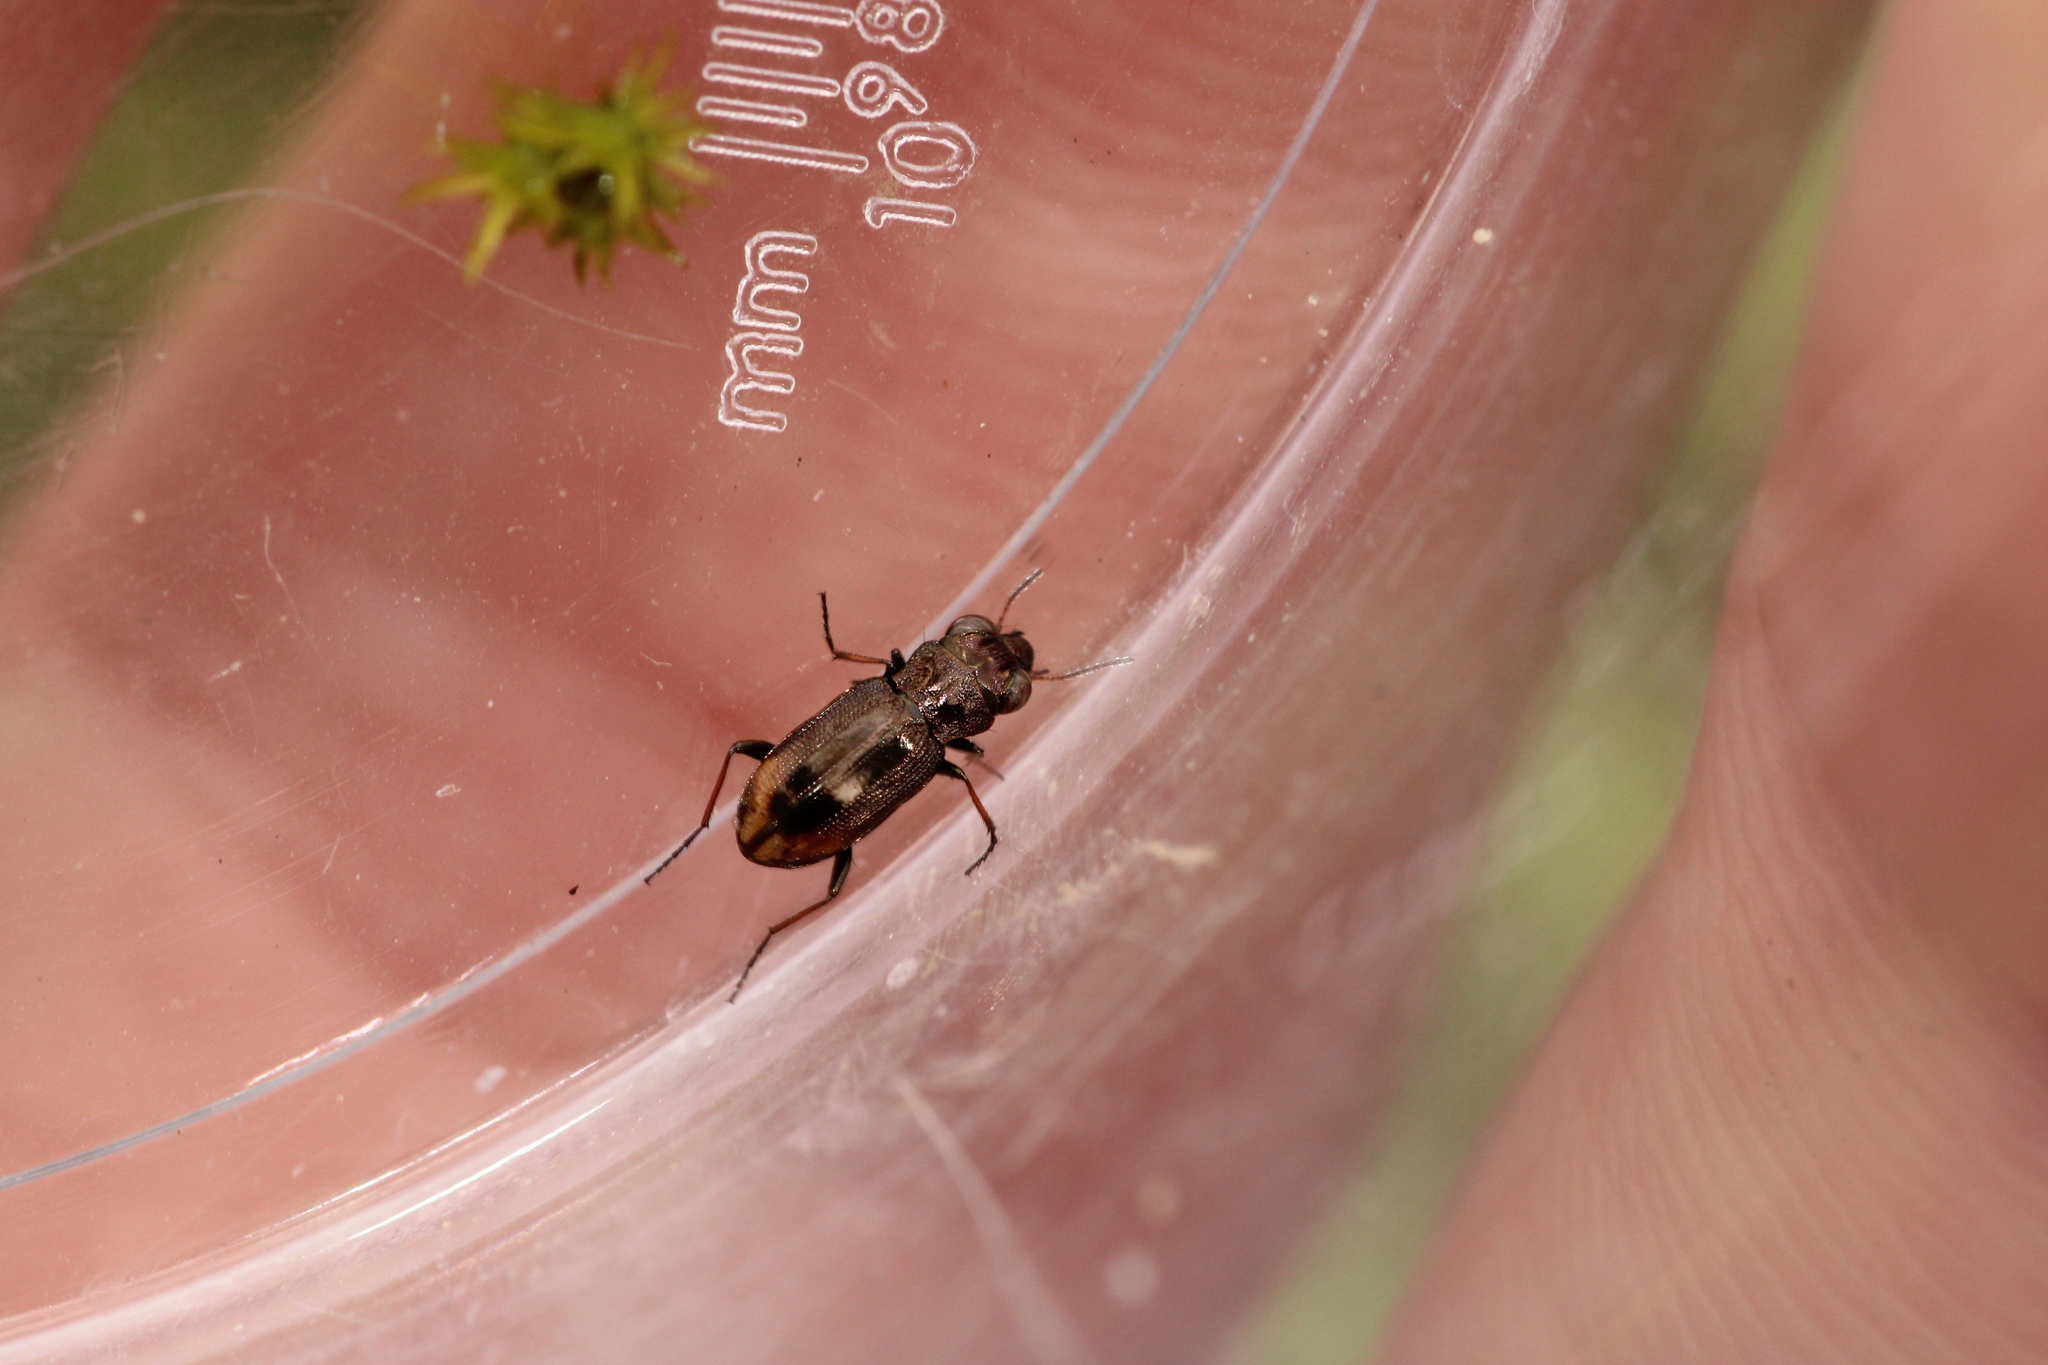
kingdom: Animalia
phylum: Arthropoda
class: Insecta
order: Coleoptera
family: Carabidae
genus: Notiophilus
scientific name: Notiophilus biguttatus
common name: Spotted gazelle beetle
